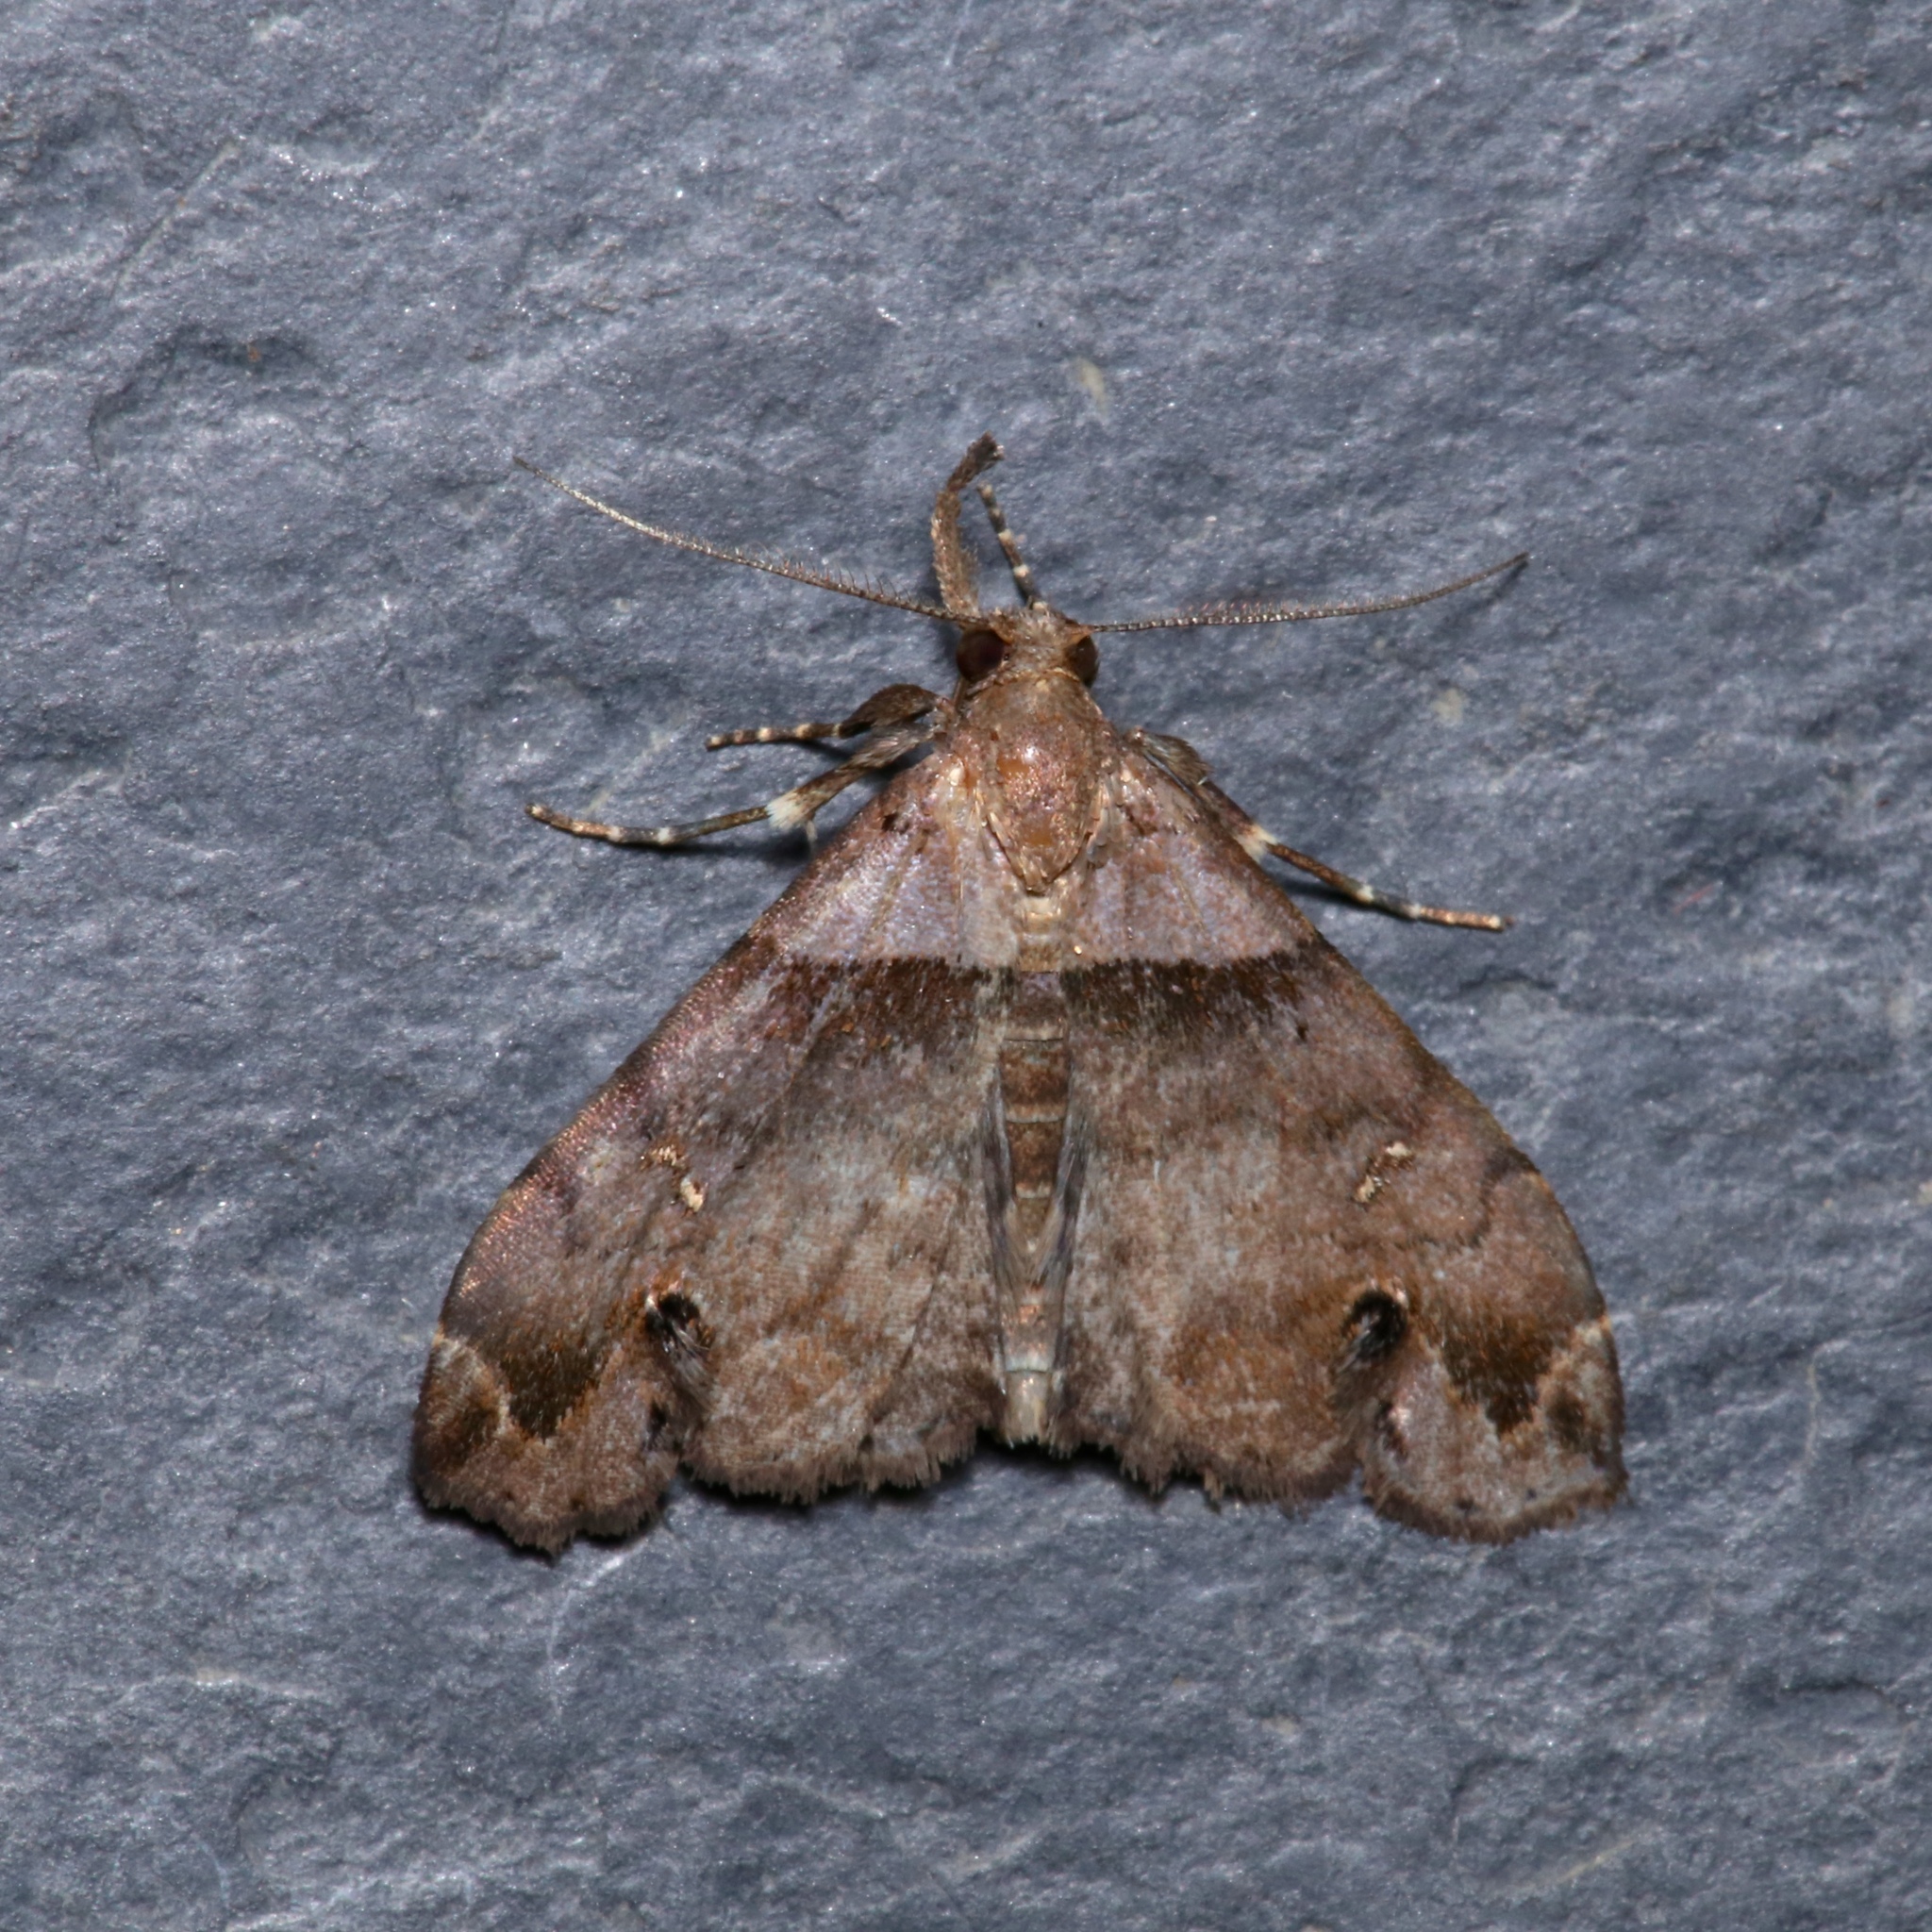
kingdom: Animalia
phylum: Arthropoda
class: Insecta
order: Lepidoptera
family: Erebidae
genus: Lascoria
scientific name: Lascoria ambigualis
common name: Ambiguous moth
